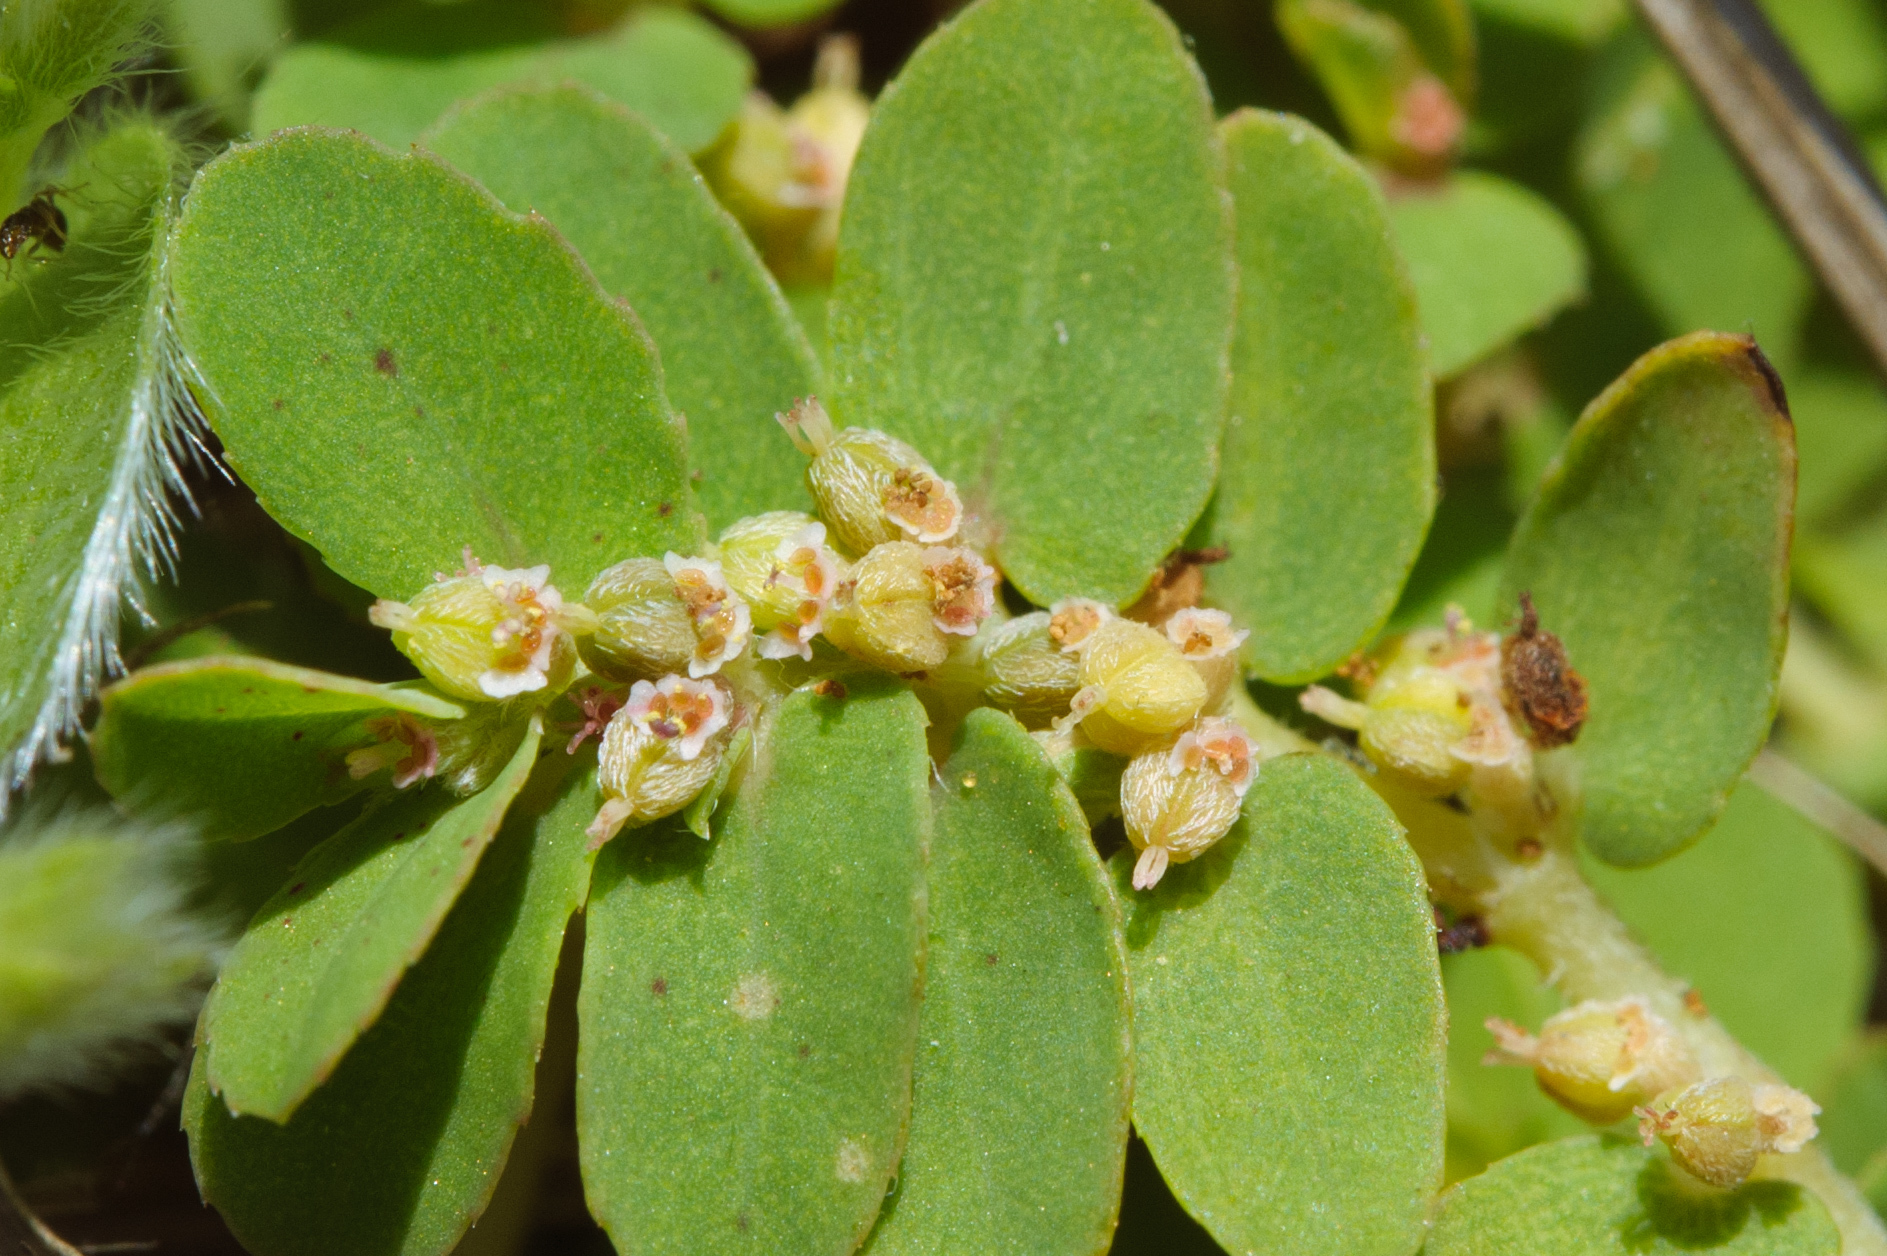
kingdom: Plantae
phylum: Tracheophyta
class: Magnoliopsida
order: Malpighiales
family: Euphorbiaceae
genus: Euphorbia
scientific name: Euphorbia thymifolia
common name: Gulf sandmat
